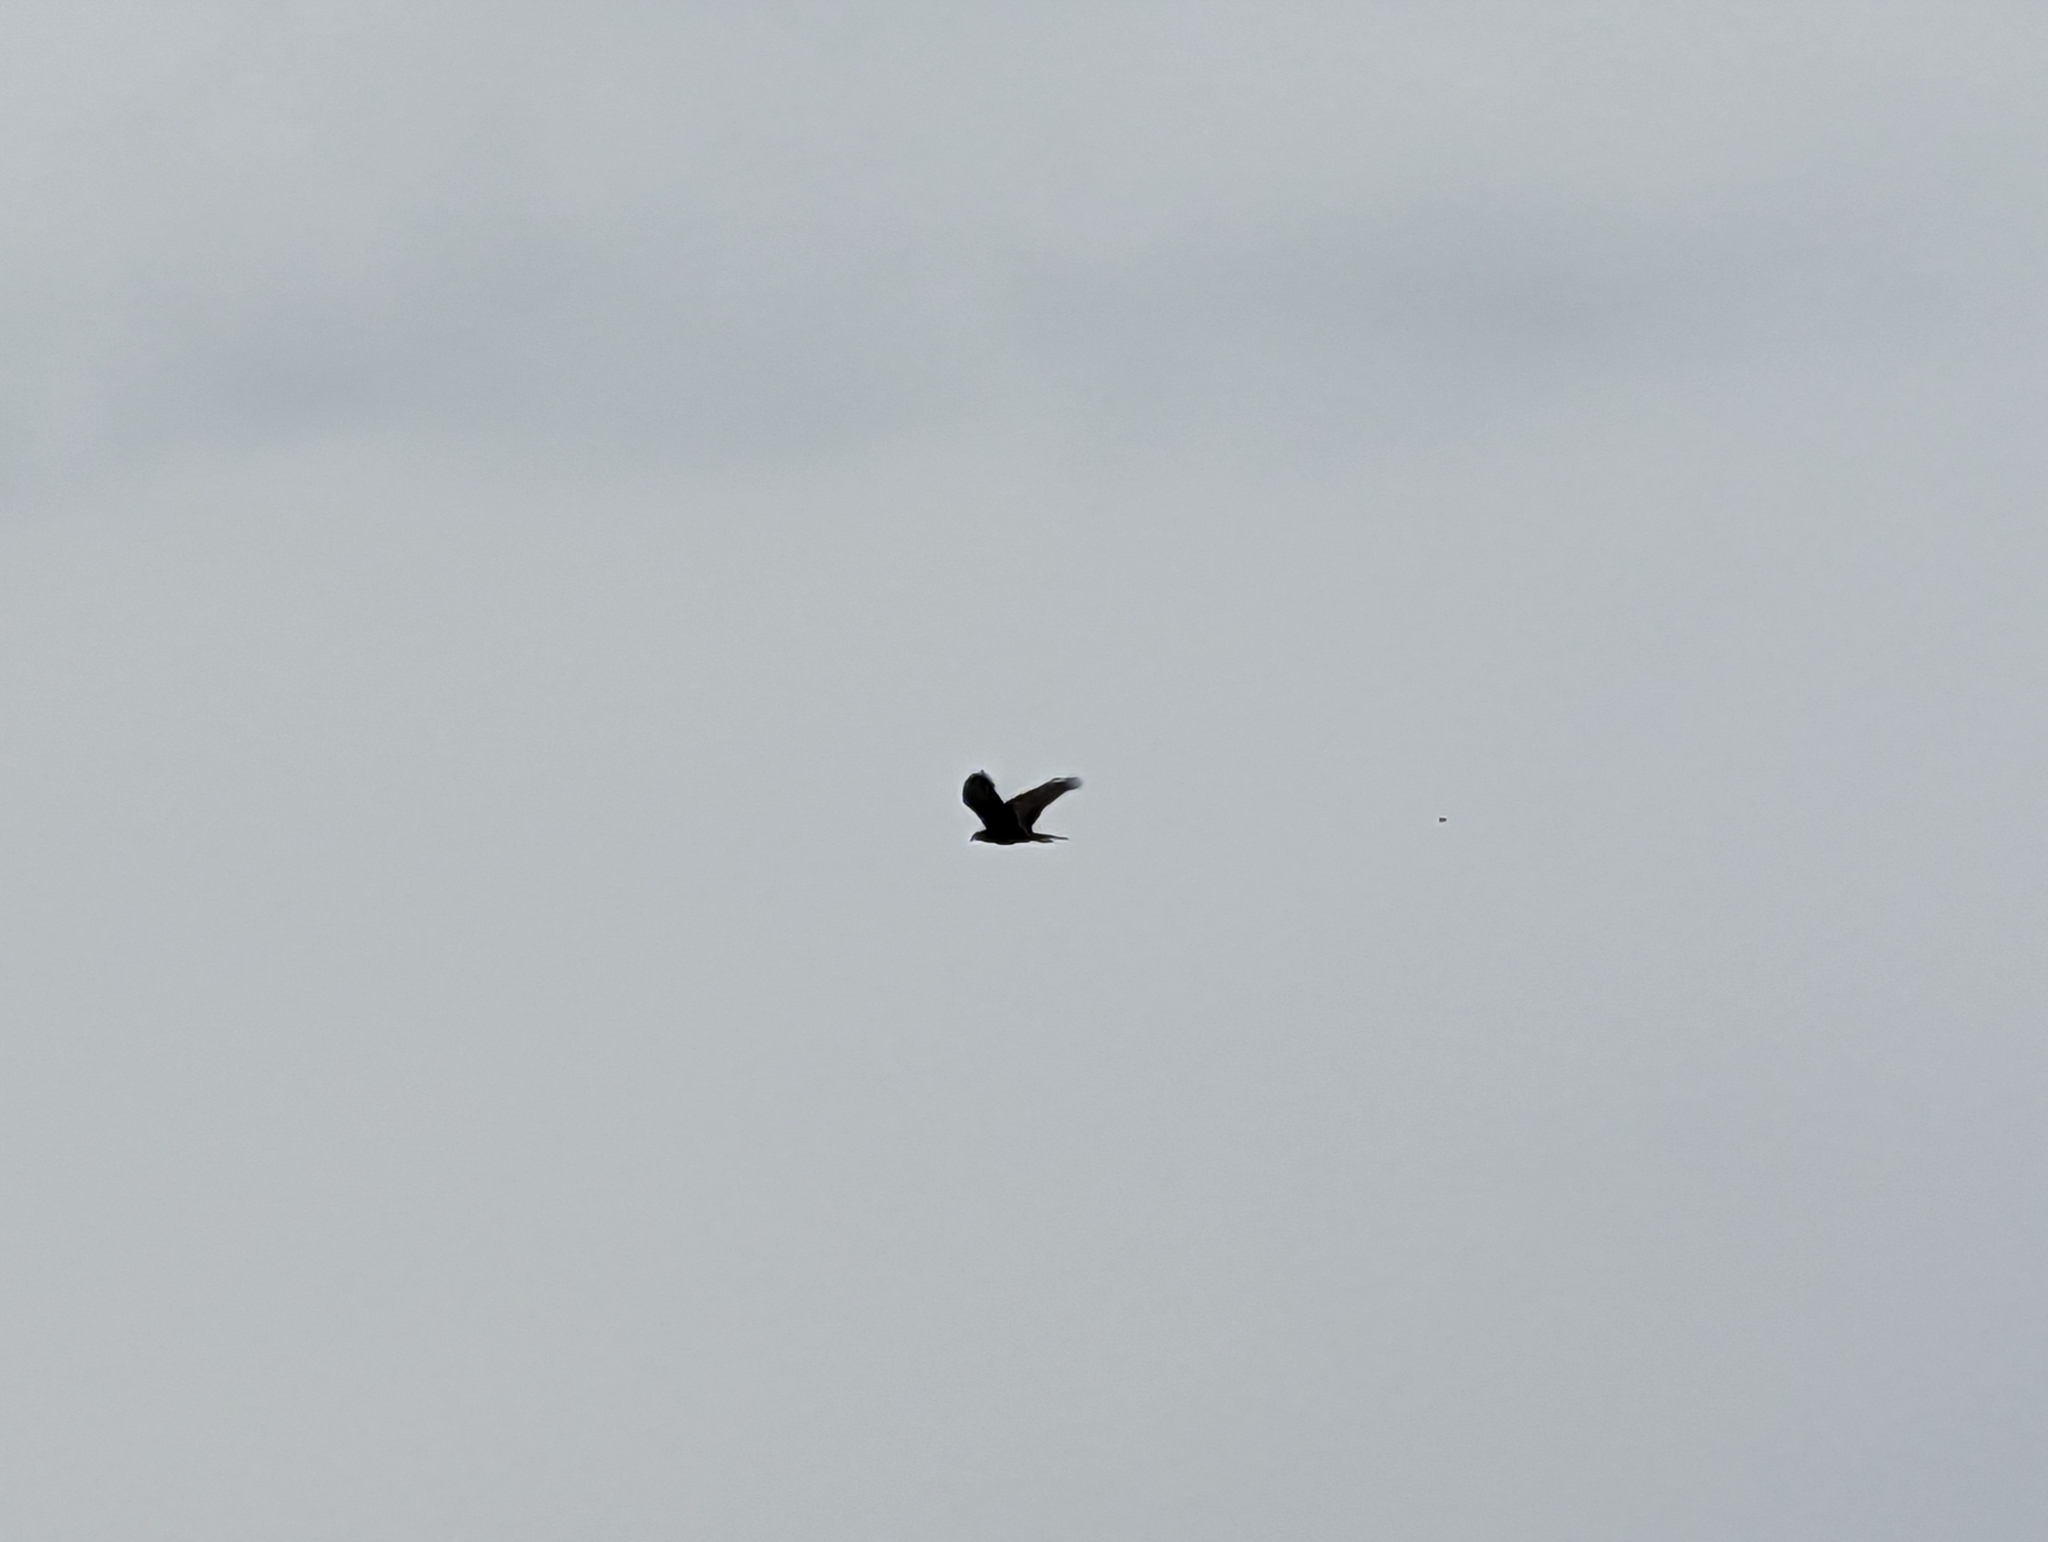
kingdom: Animalia
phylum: Chordata
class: Aves
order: Accipitriformes
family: Accipitridae
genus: Circus
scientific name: Circus aeruginosus
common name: Western marsh harrier
